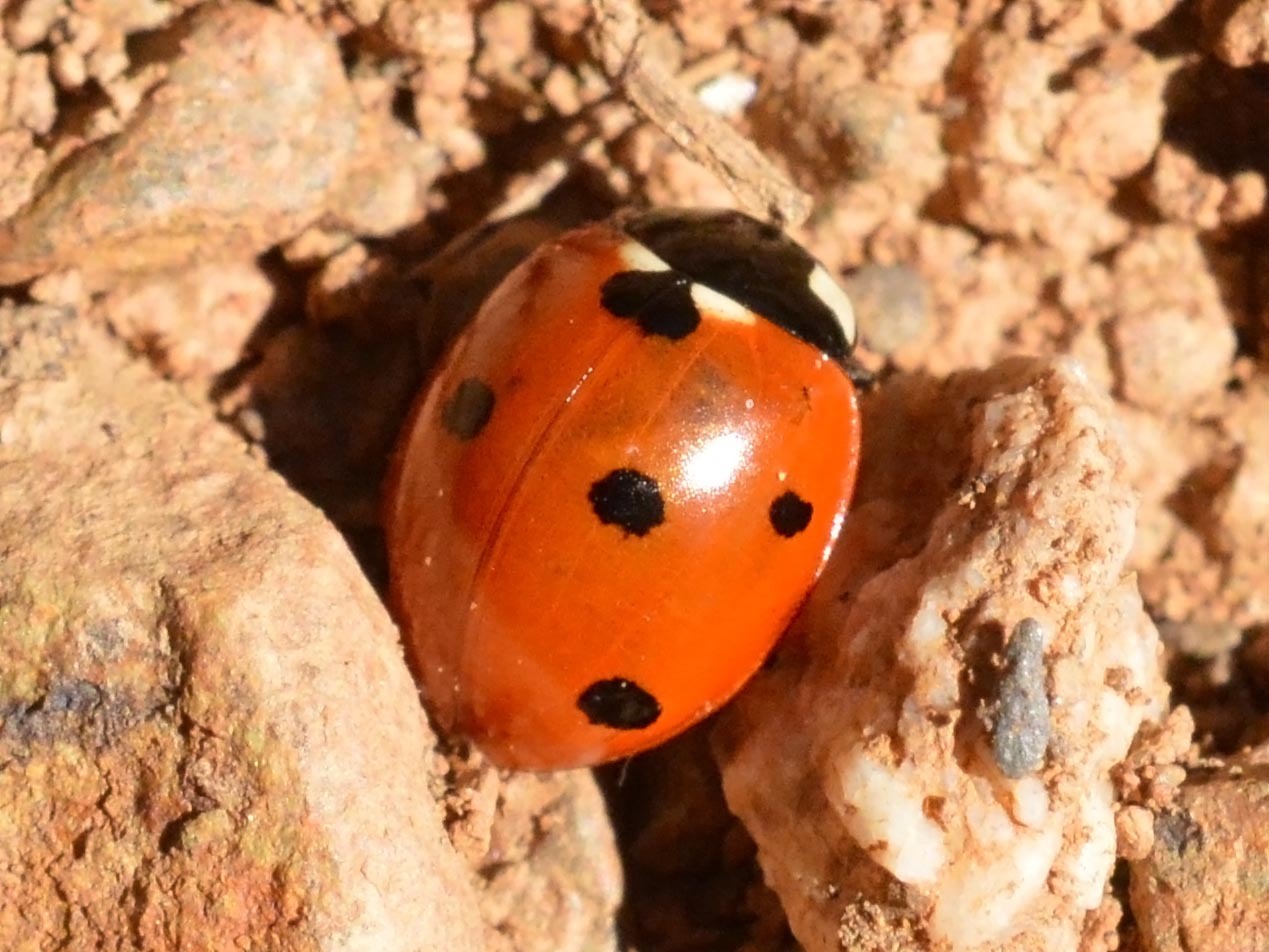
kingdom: Animalia
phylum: Arthropoda
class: Insecta
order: Coleoptera
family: Coccinellidae
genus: Coccinella
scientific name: Coccinella septempunctata
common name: Sevenspotted lady beetle
